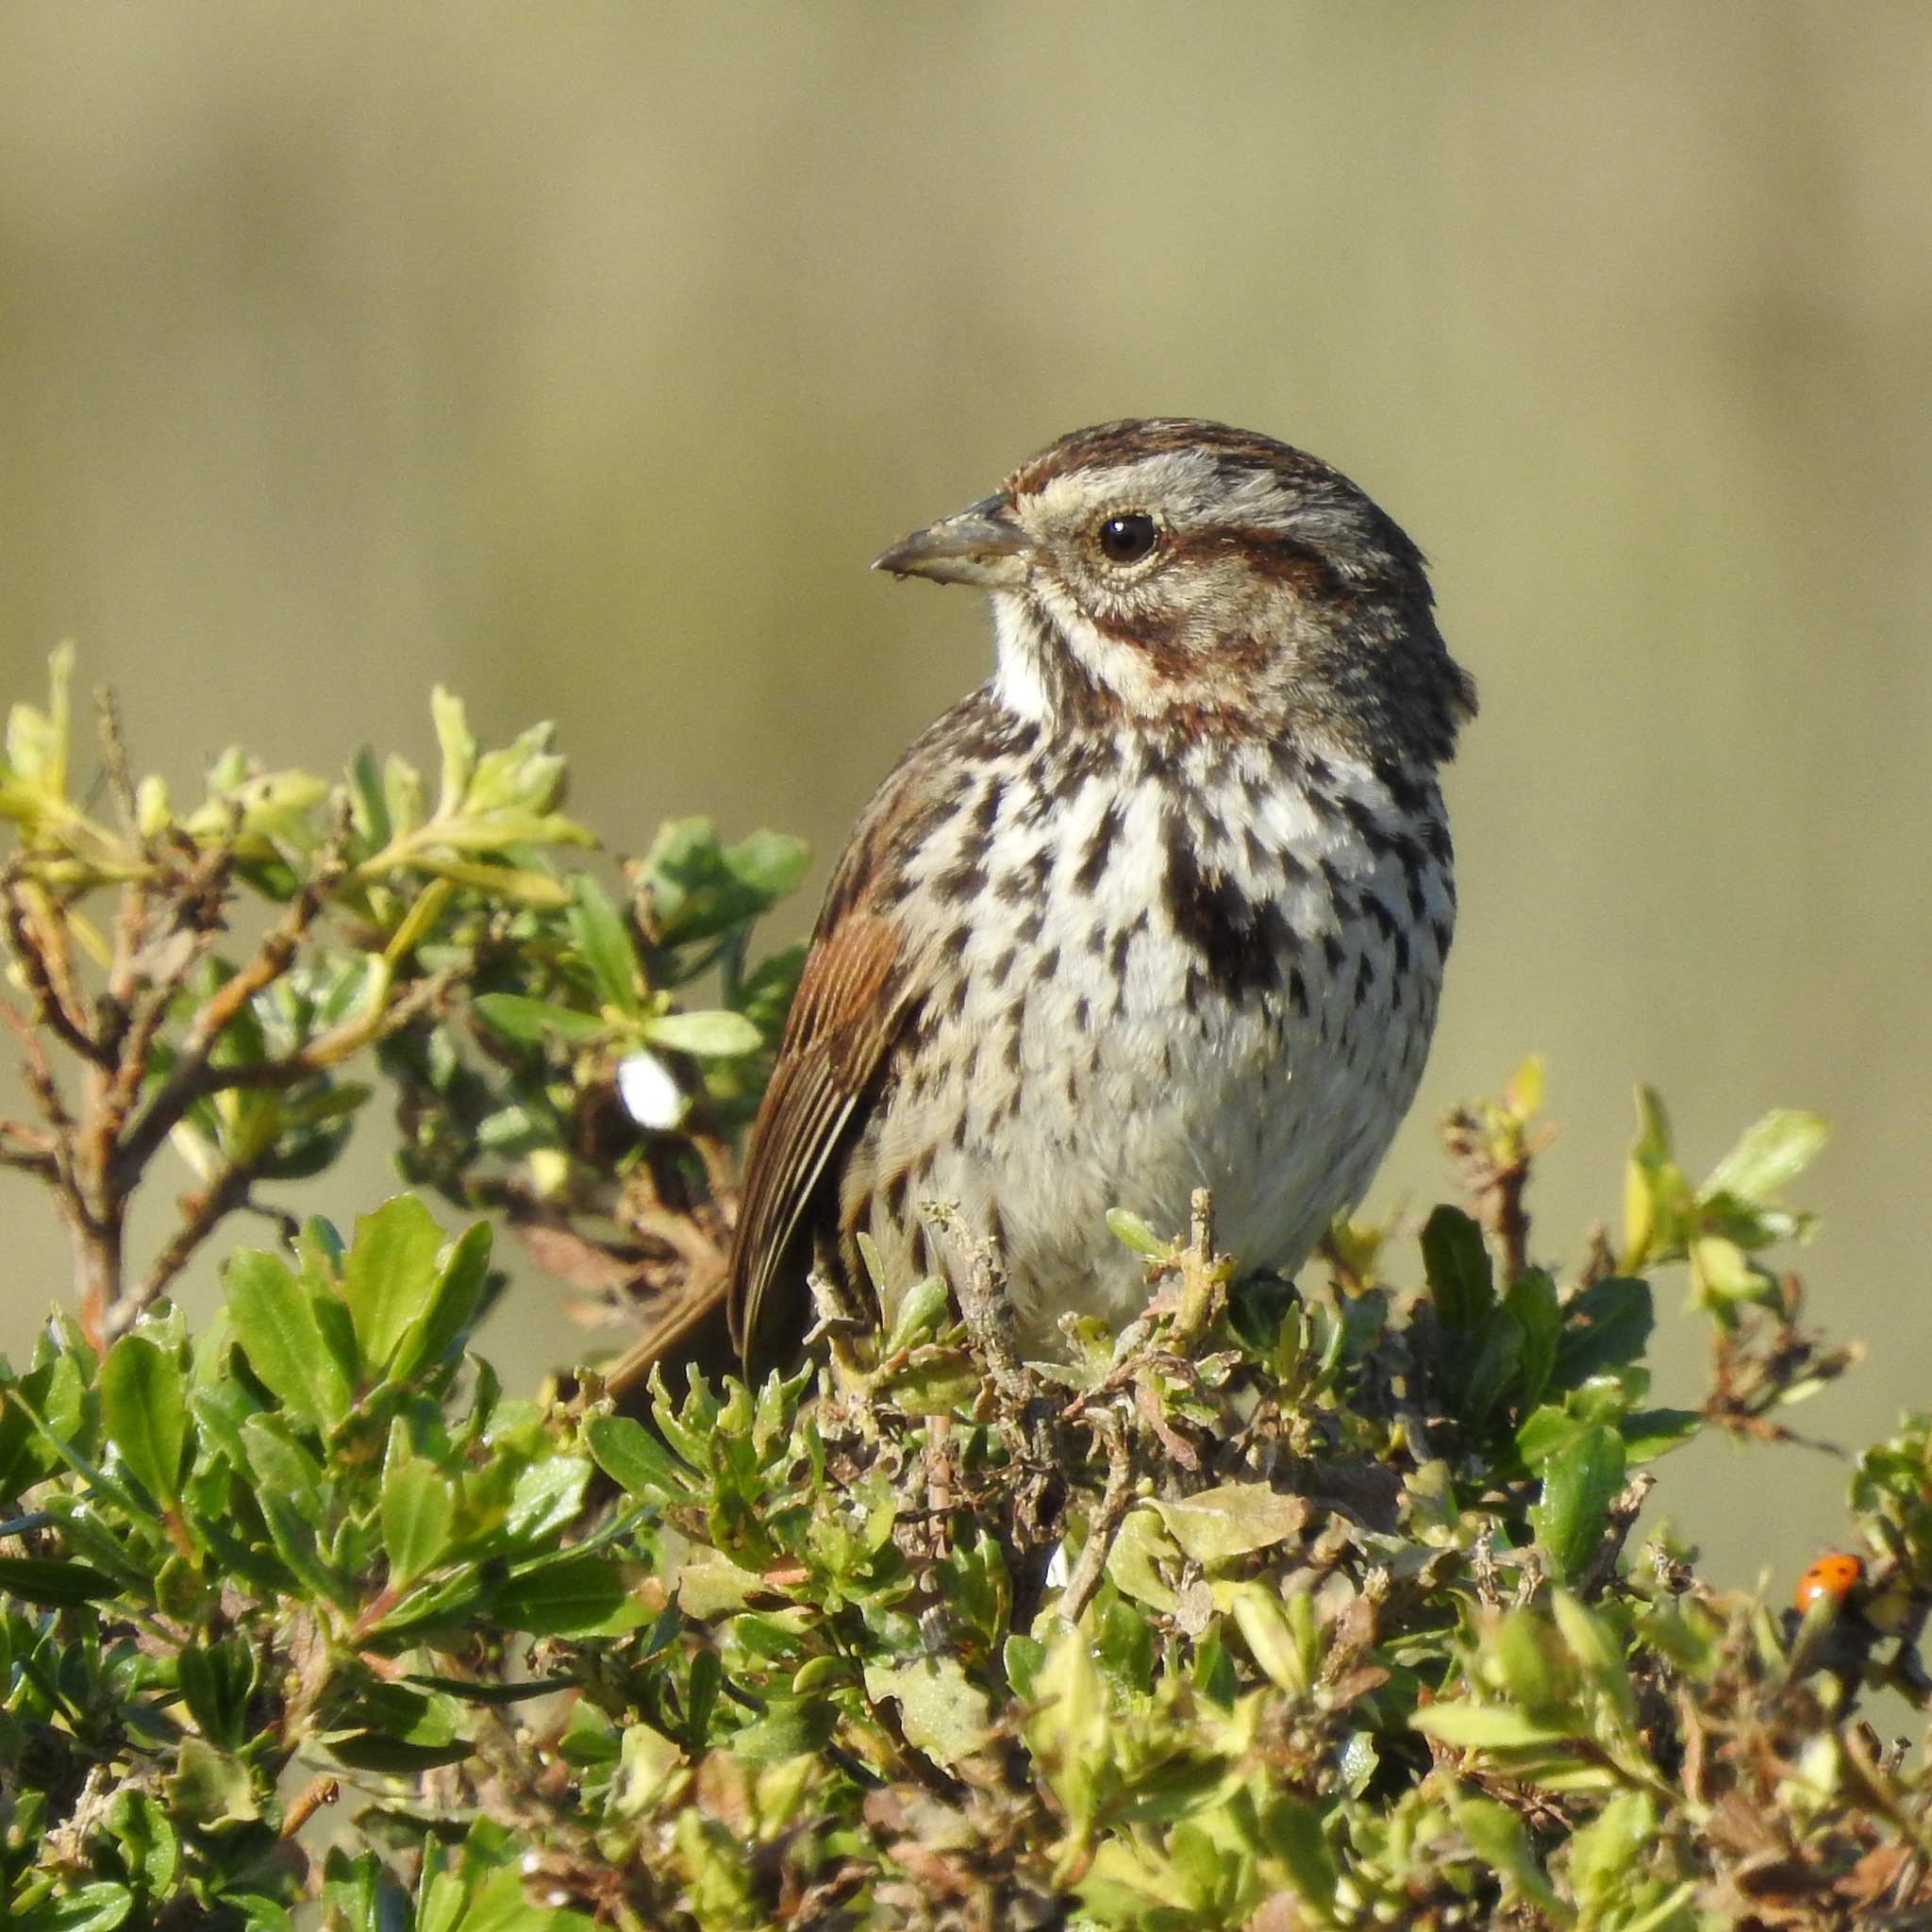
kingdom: Animalia
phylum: Chordata
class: Aves
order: Passeriformes
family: Passerellidae
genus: Melospiza
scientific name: Melospiza melodia
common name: Song sparrow
